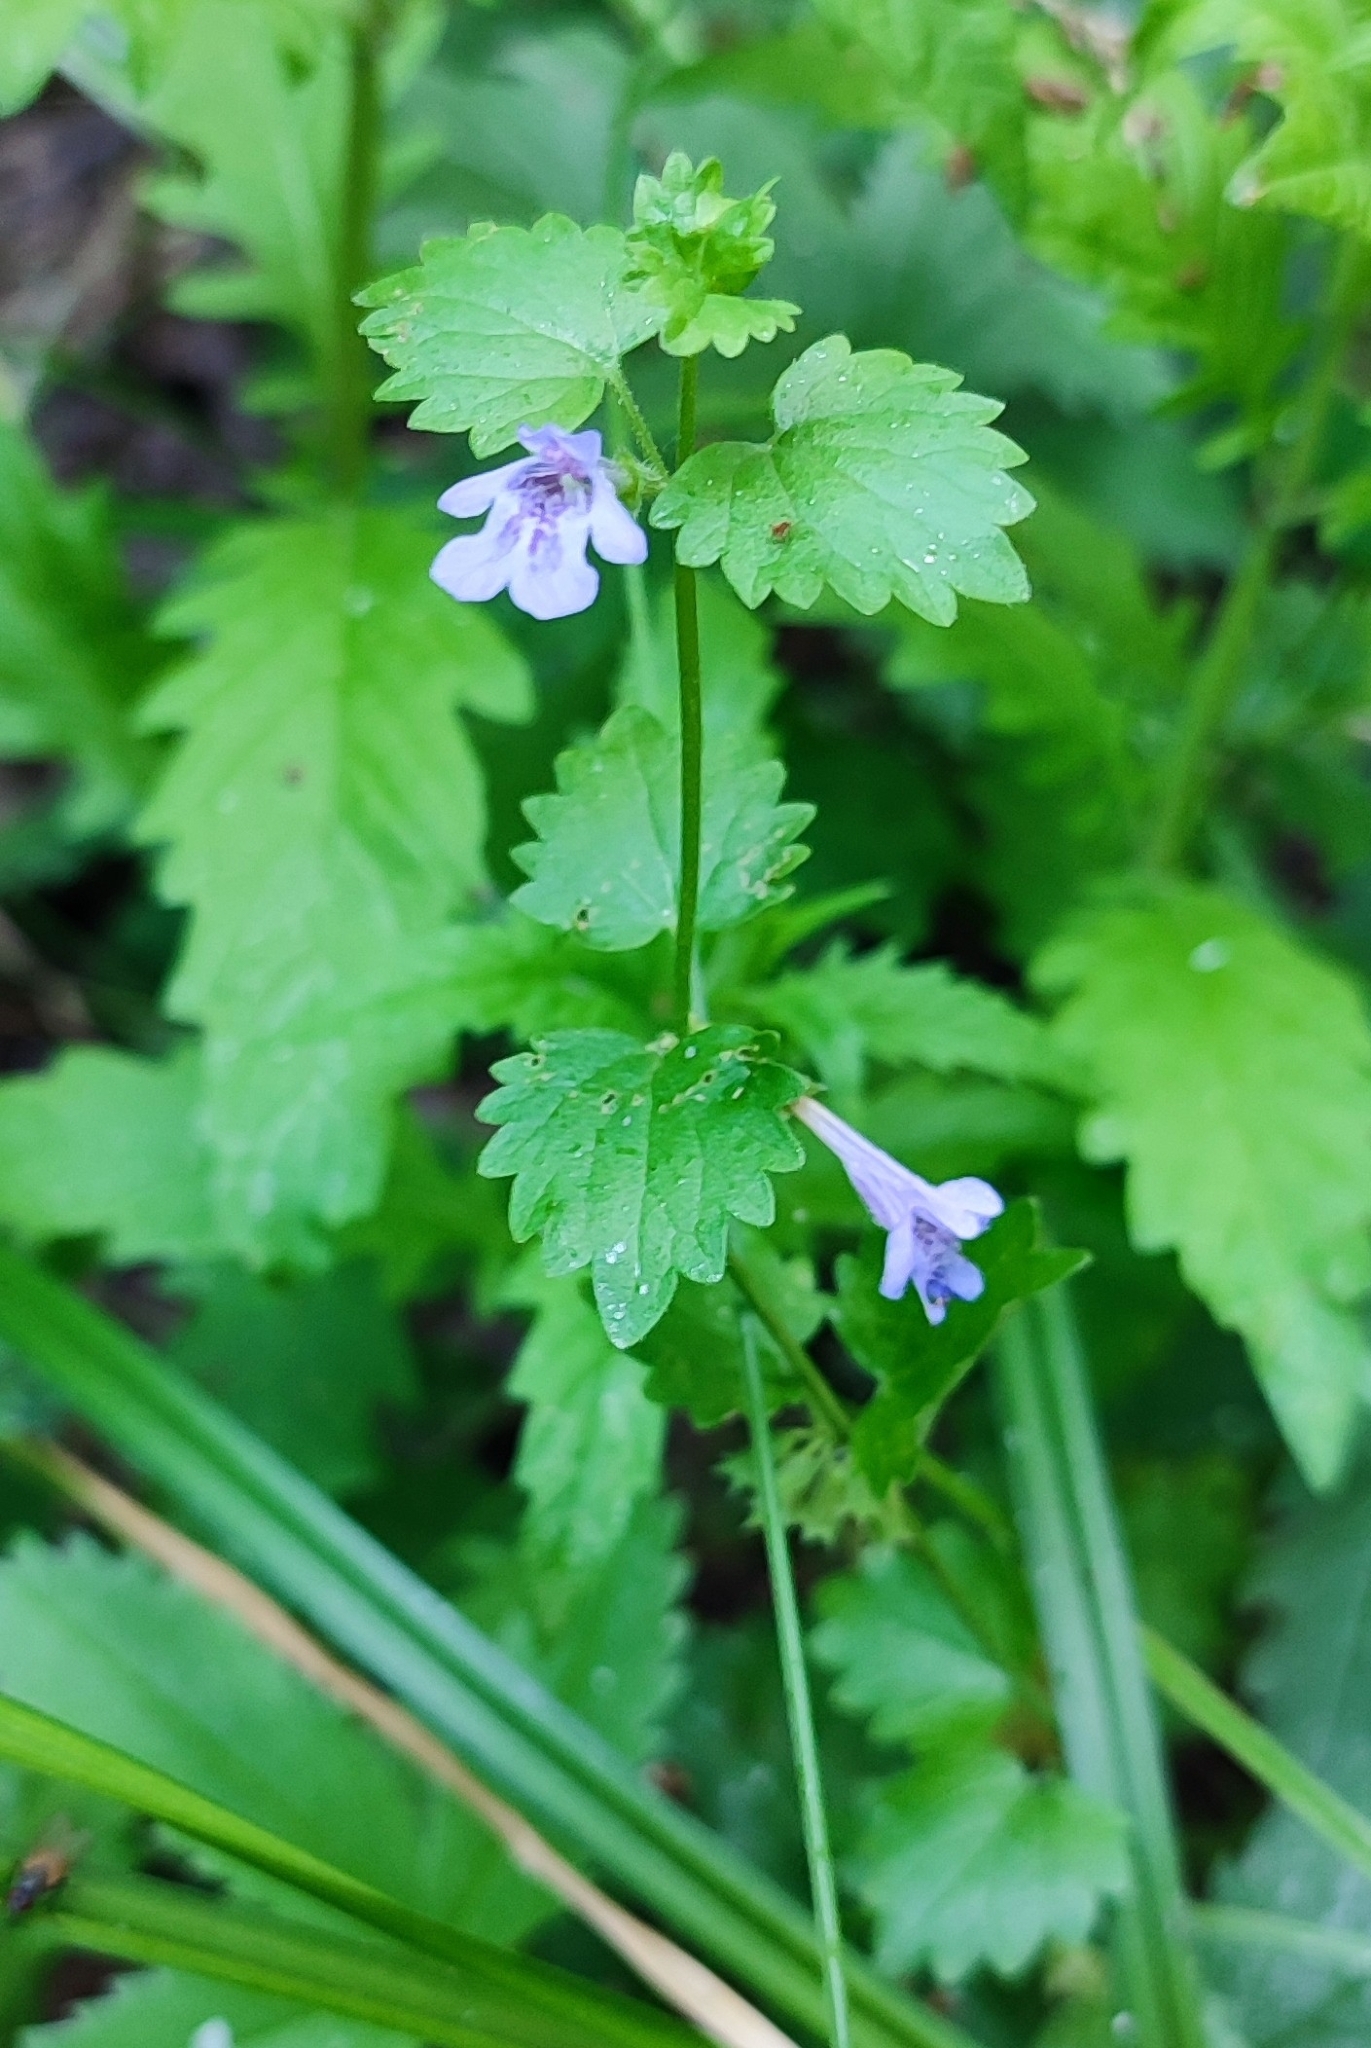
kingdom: Plantae
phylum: Tracheophyta
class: Magnoliopsida
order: Lamiales
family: Lamiaceae
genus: Glechoma
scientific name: Glechoma hederacea
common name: Ground ivy
